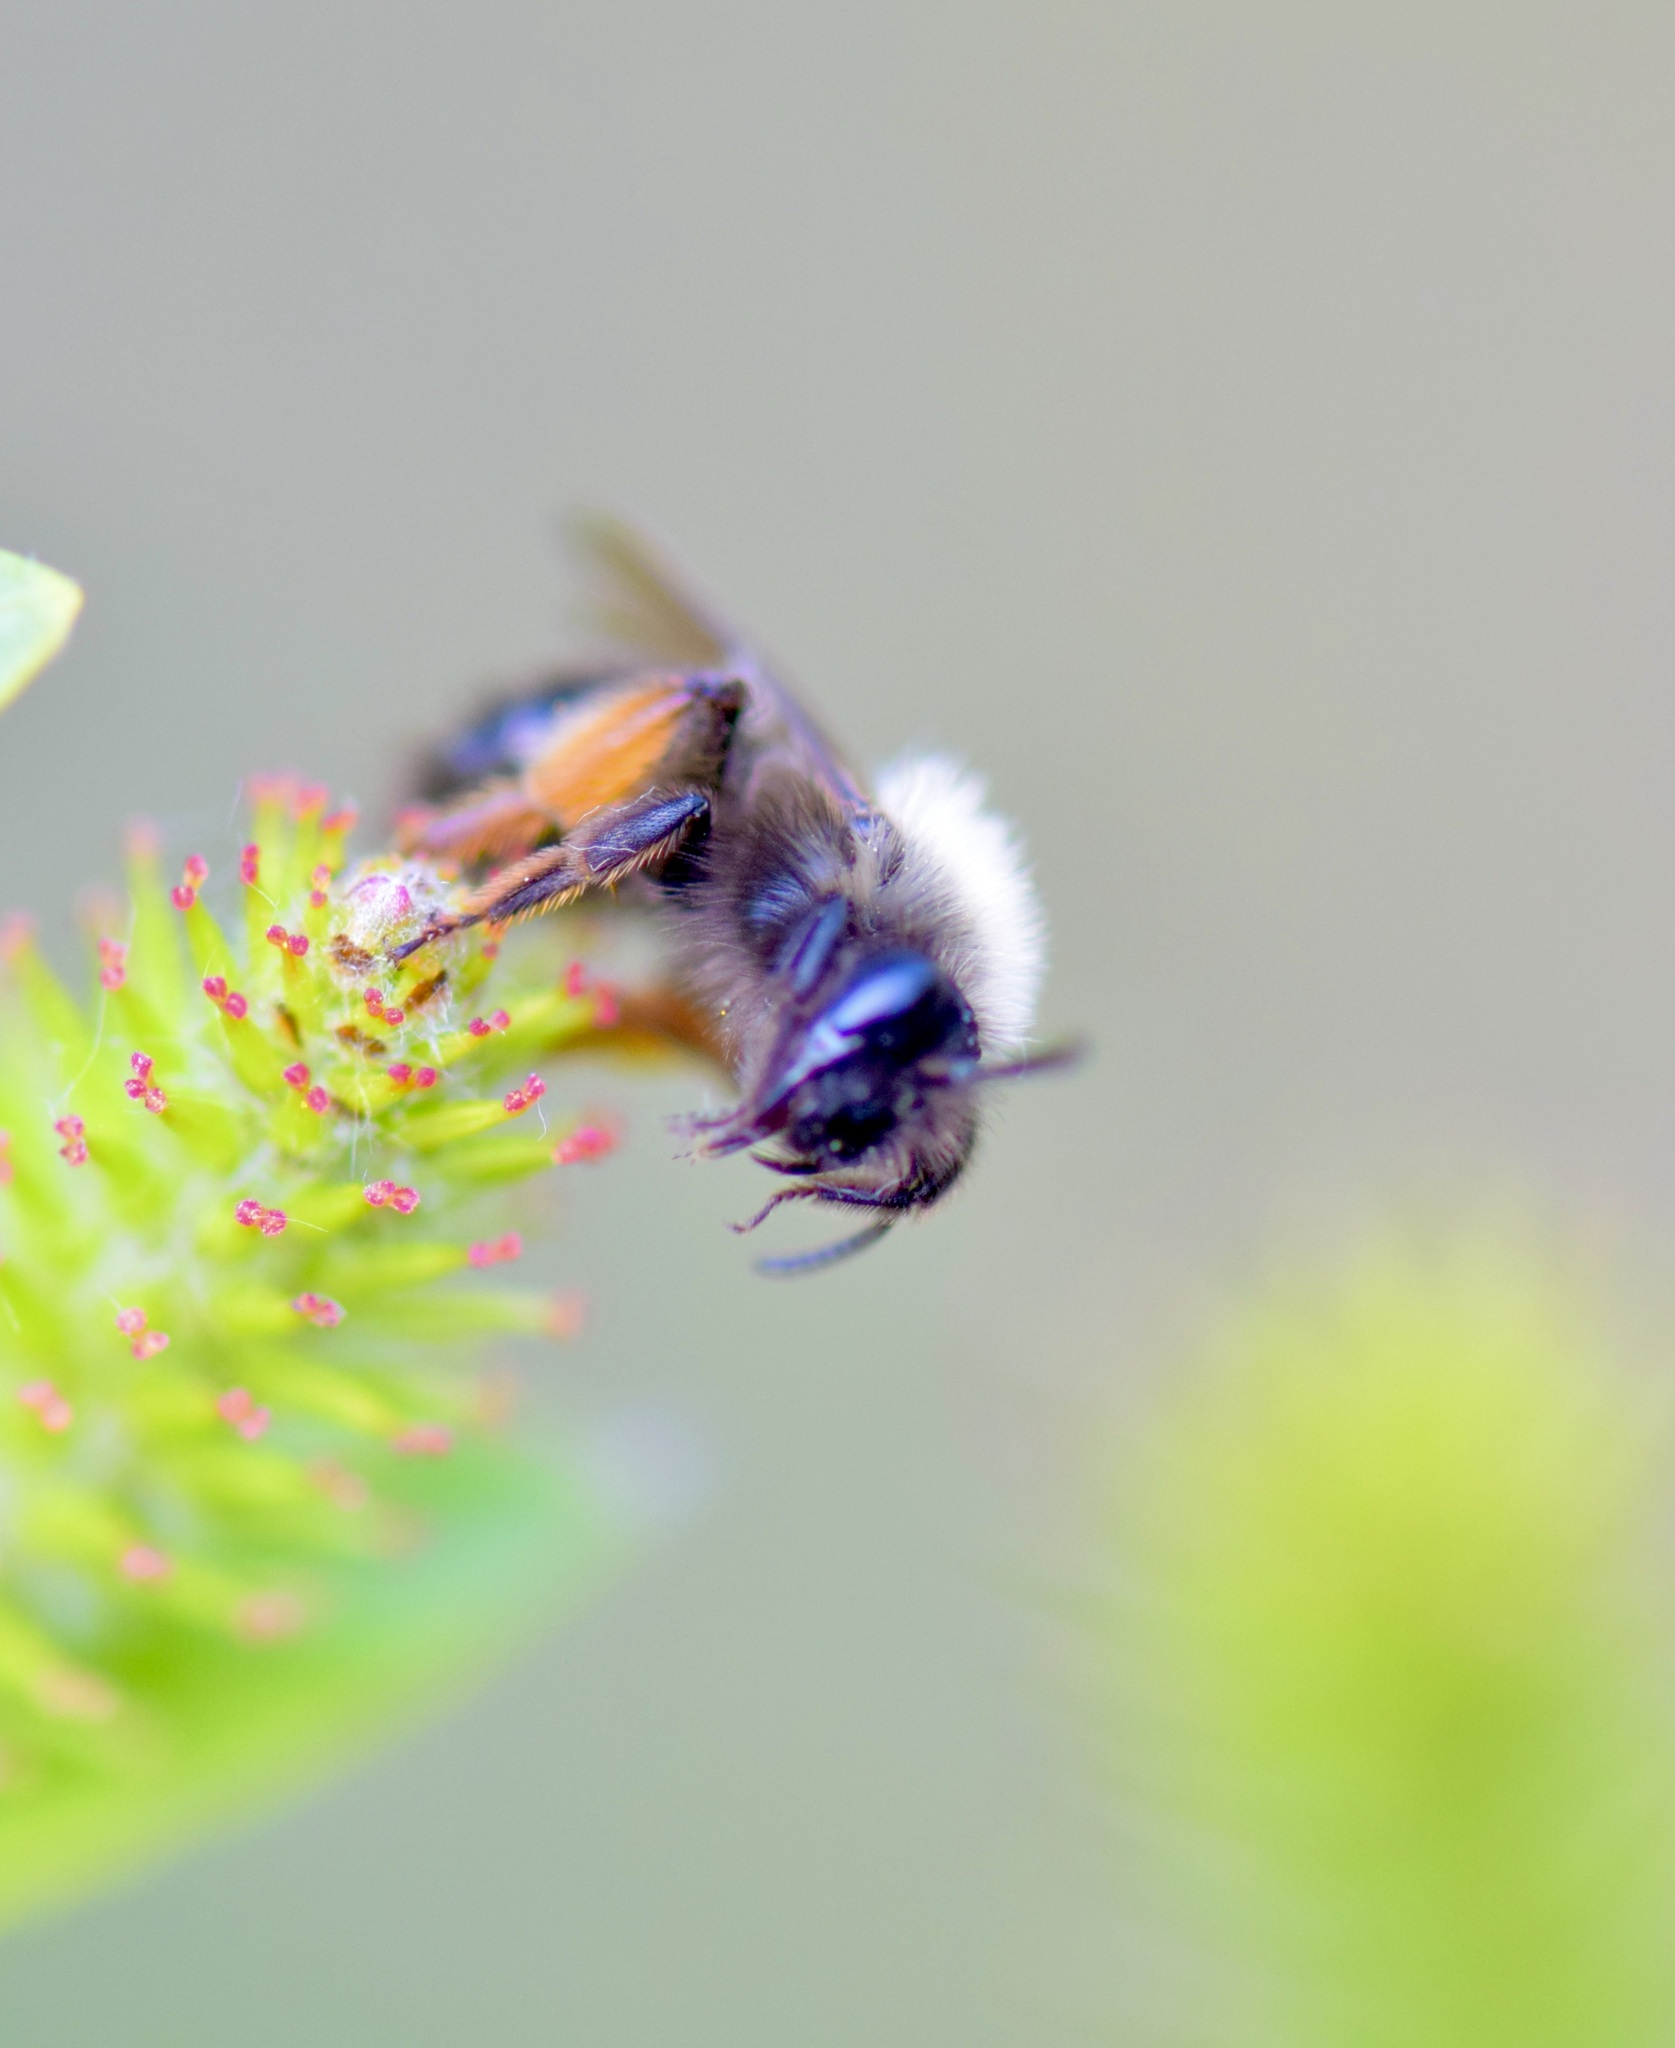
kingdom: Animalia
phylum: Arthropoda
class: Insecta
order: Hymenoptera
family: Andrenidae
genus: Andrena
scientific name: Andrena clarkella
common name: Clarke's mining bee
